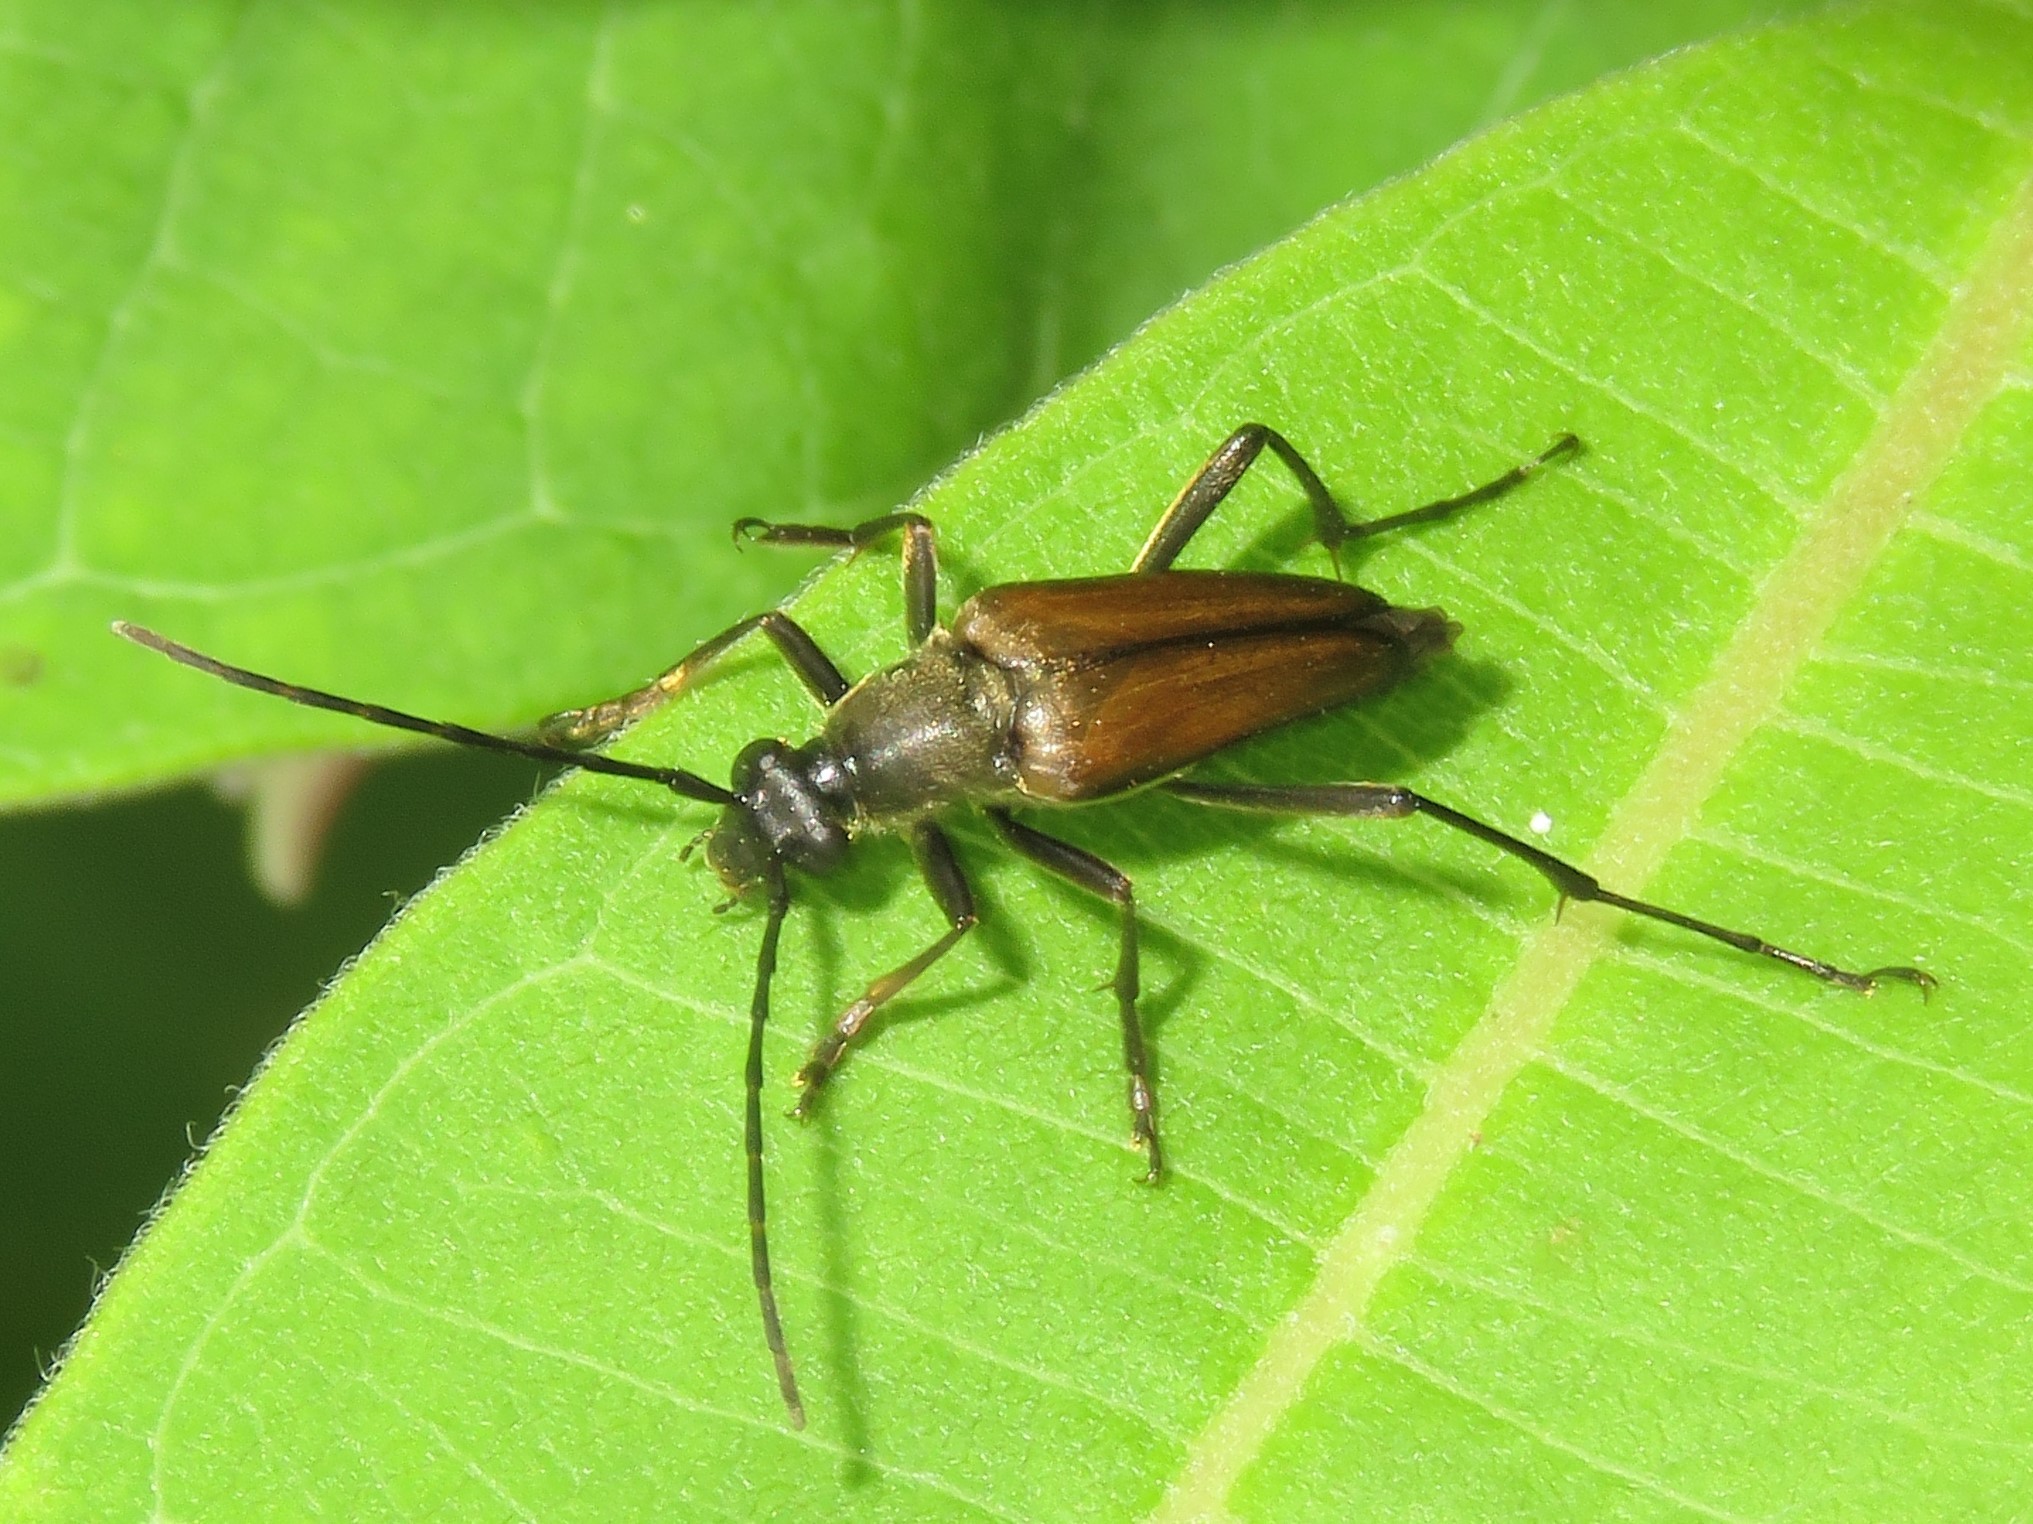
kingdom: Animalia
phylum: Arthropoda
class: Insecta
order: Coleoptera
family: Cerambycidae
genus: Etorofus
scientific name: Etorofus
